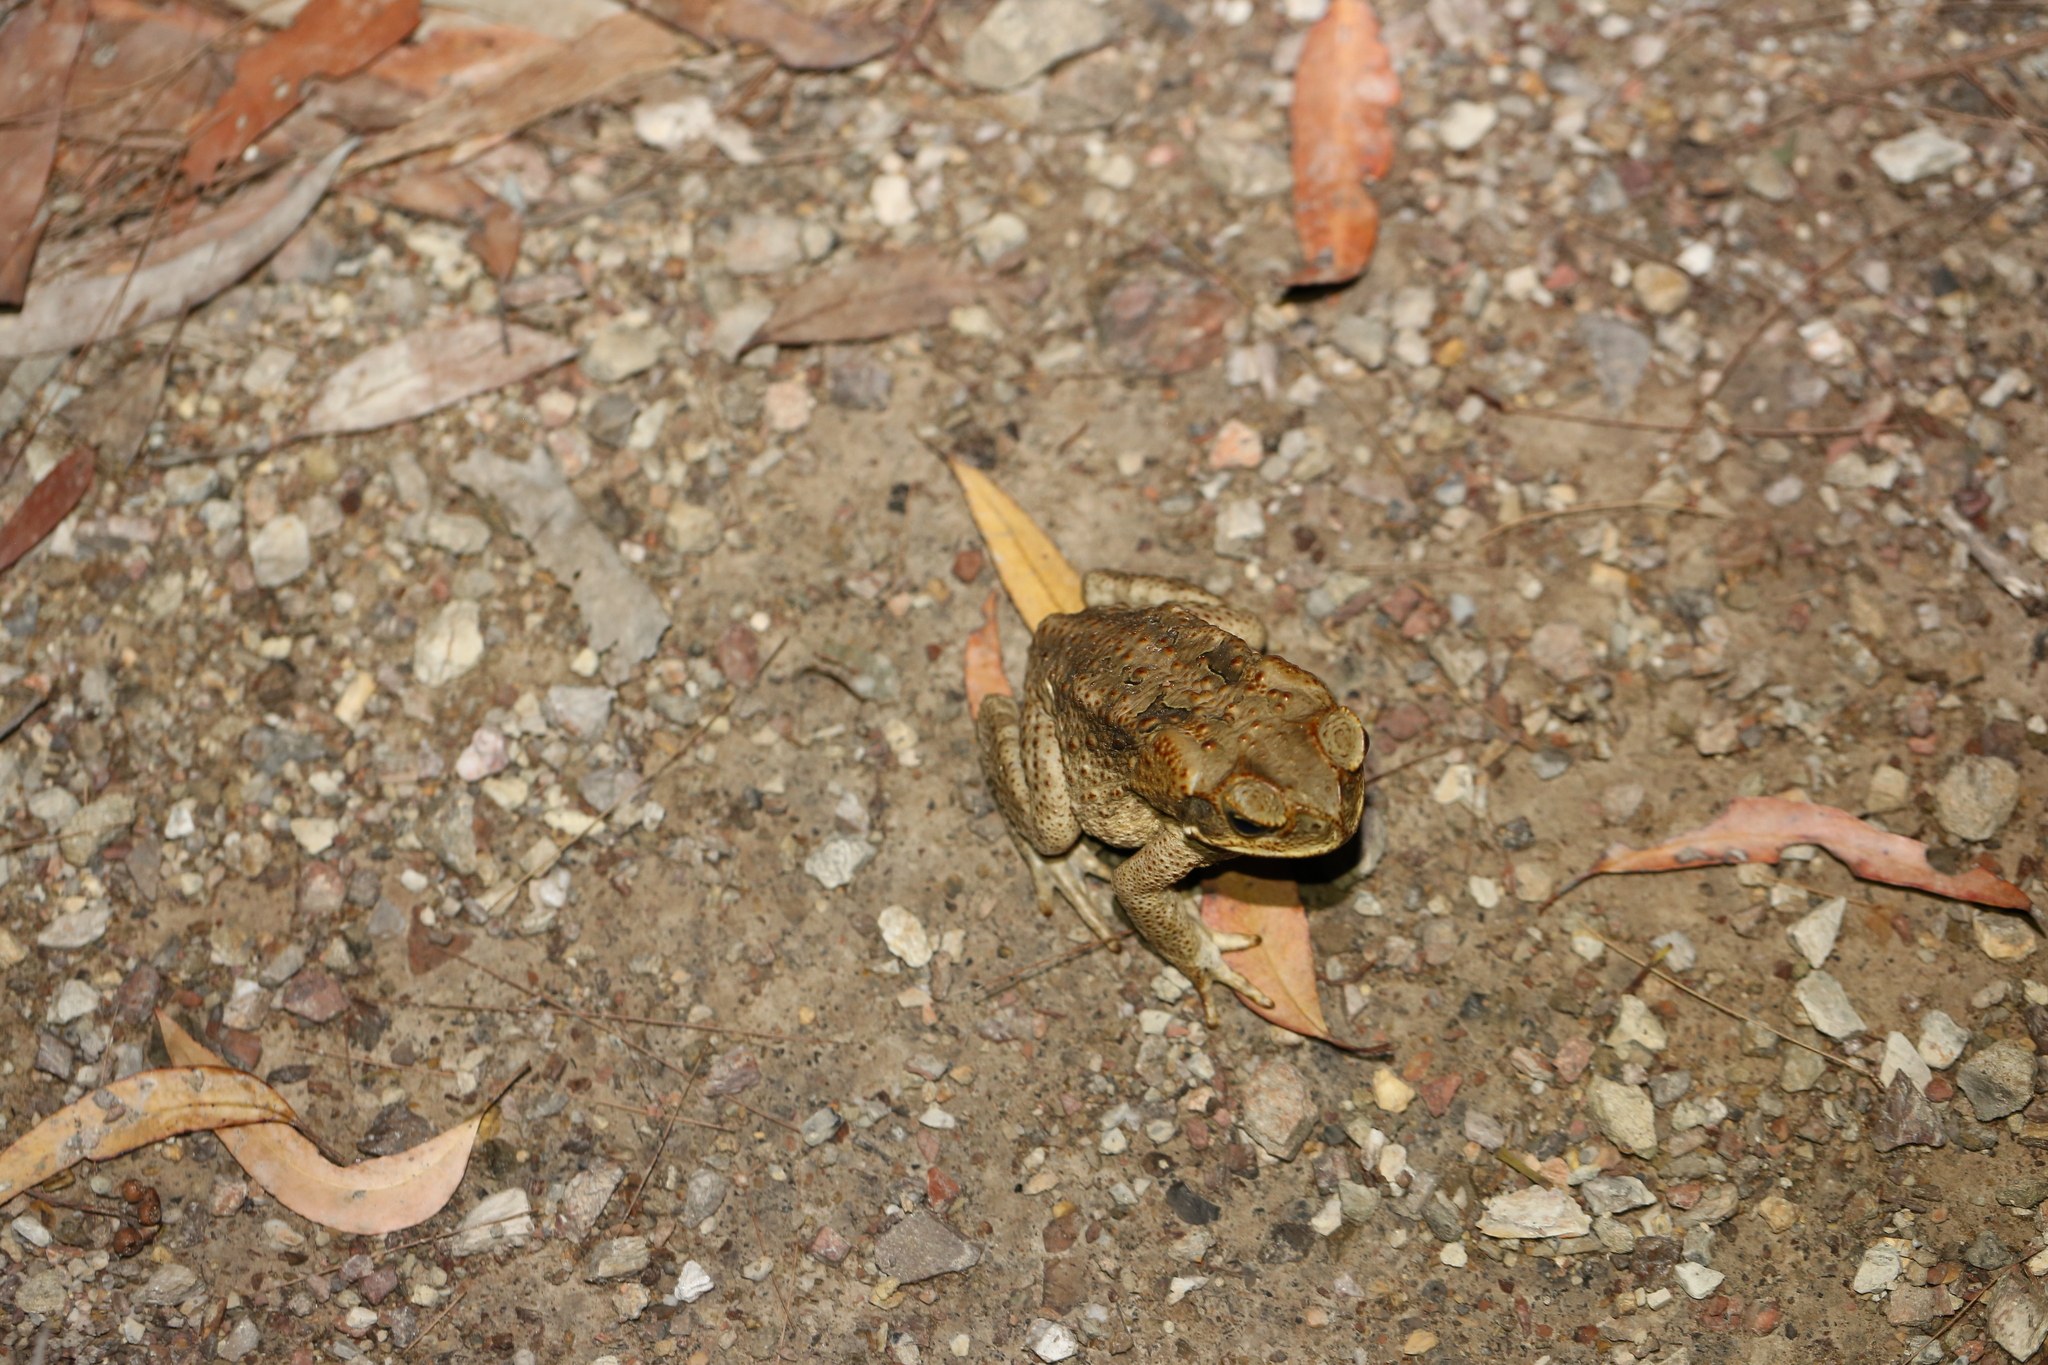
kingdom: Animalia
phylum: Chordata
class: Amphibia
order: Anura
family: Bufonidae
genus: Rhinella
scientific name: Rhinella marina
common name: Cane toad
